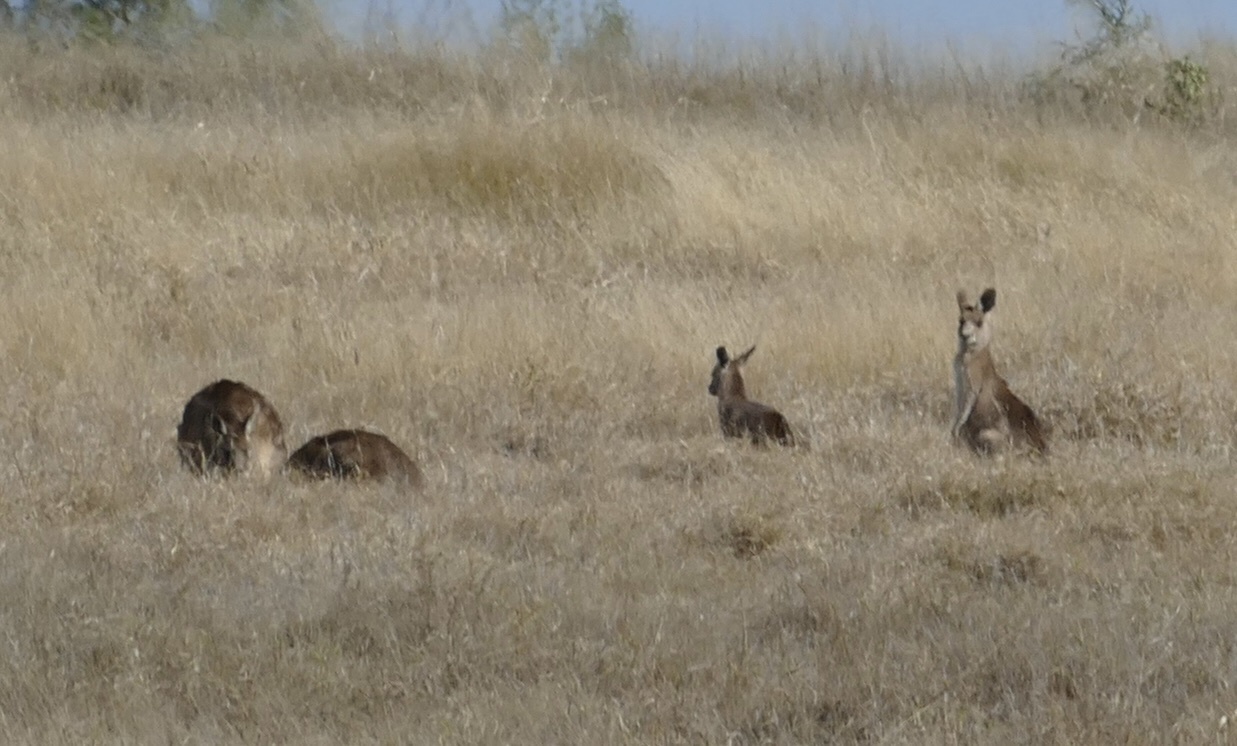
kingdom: Animalia
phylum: Chordata
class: Mammalia
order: Diprotodontia
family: Macropodidae
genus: Macropus
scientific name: Macropus giganteus
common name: Eastern grey kangaroo
